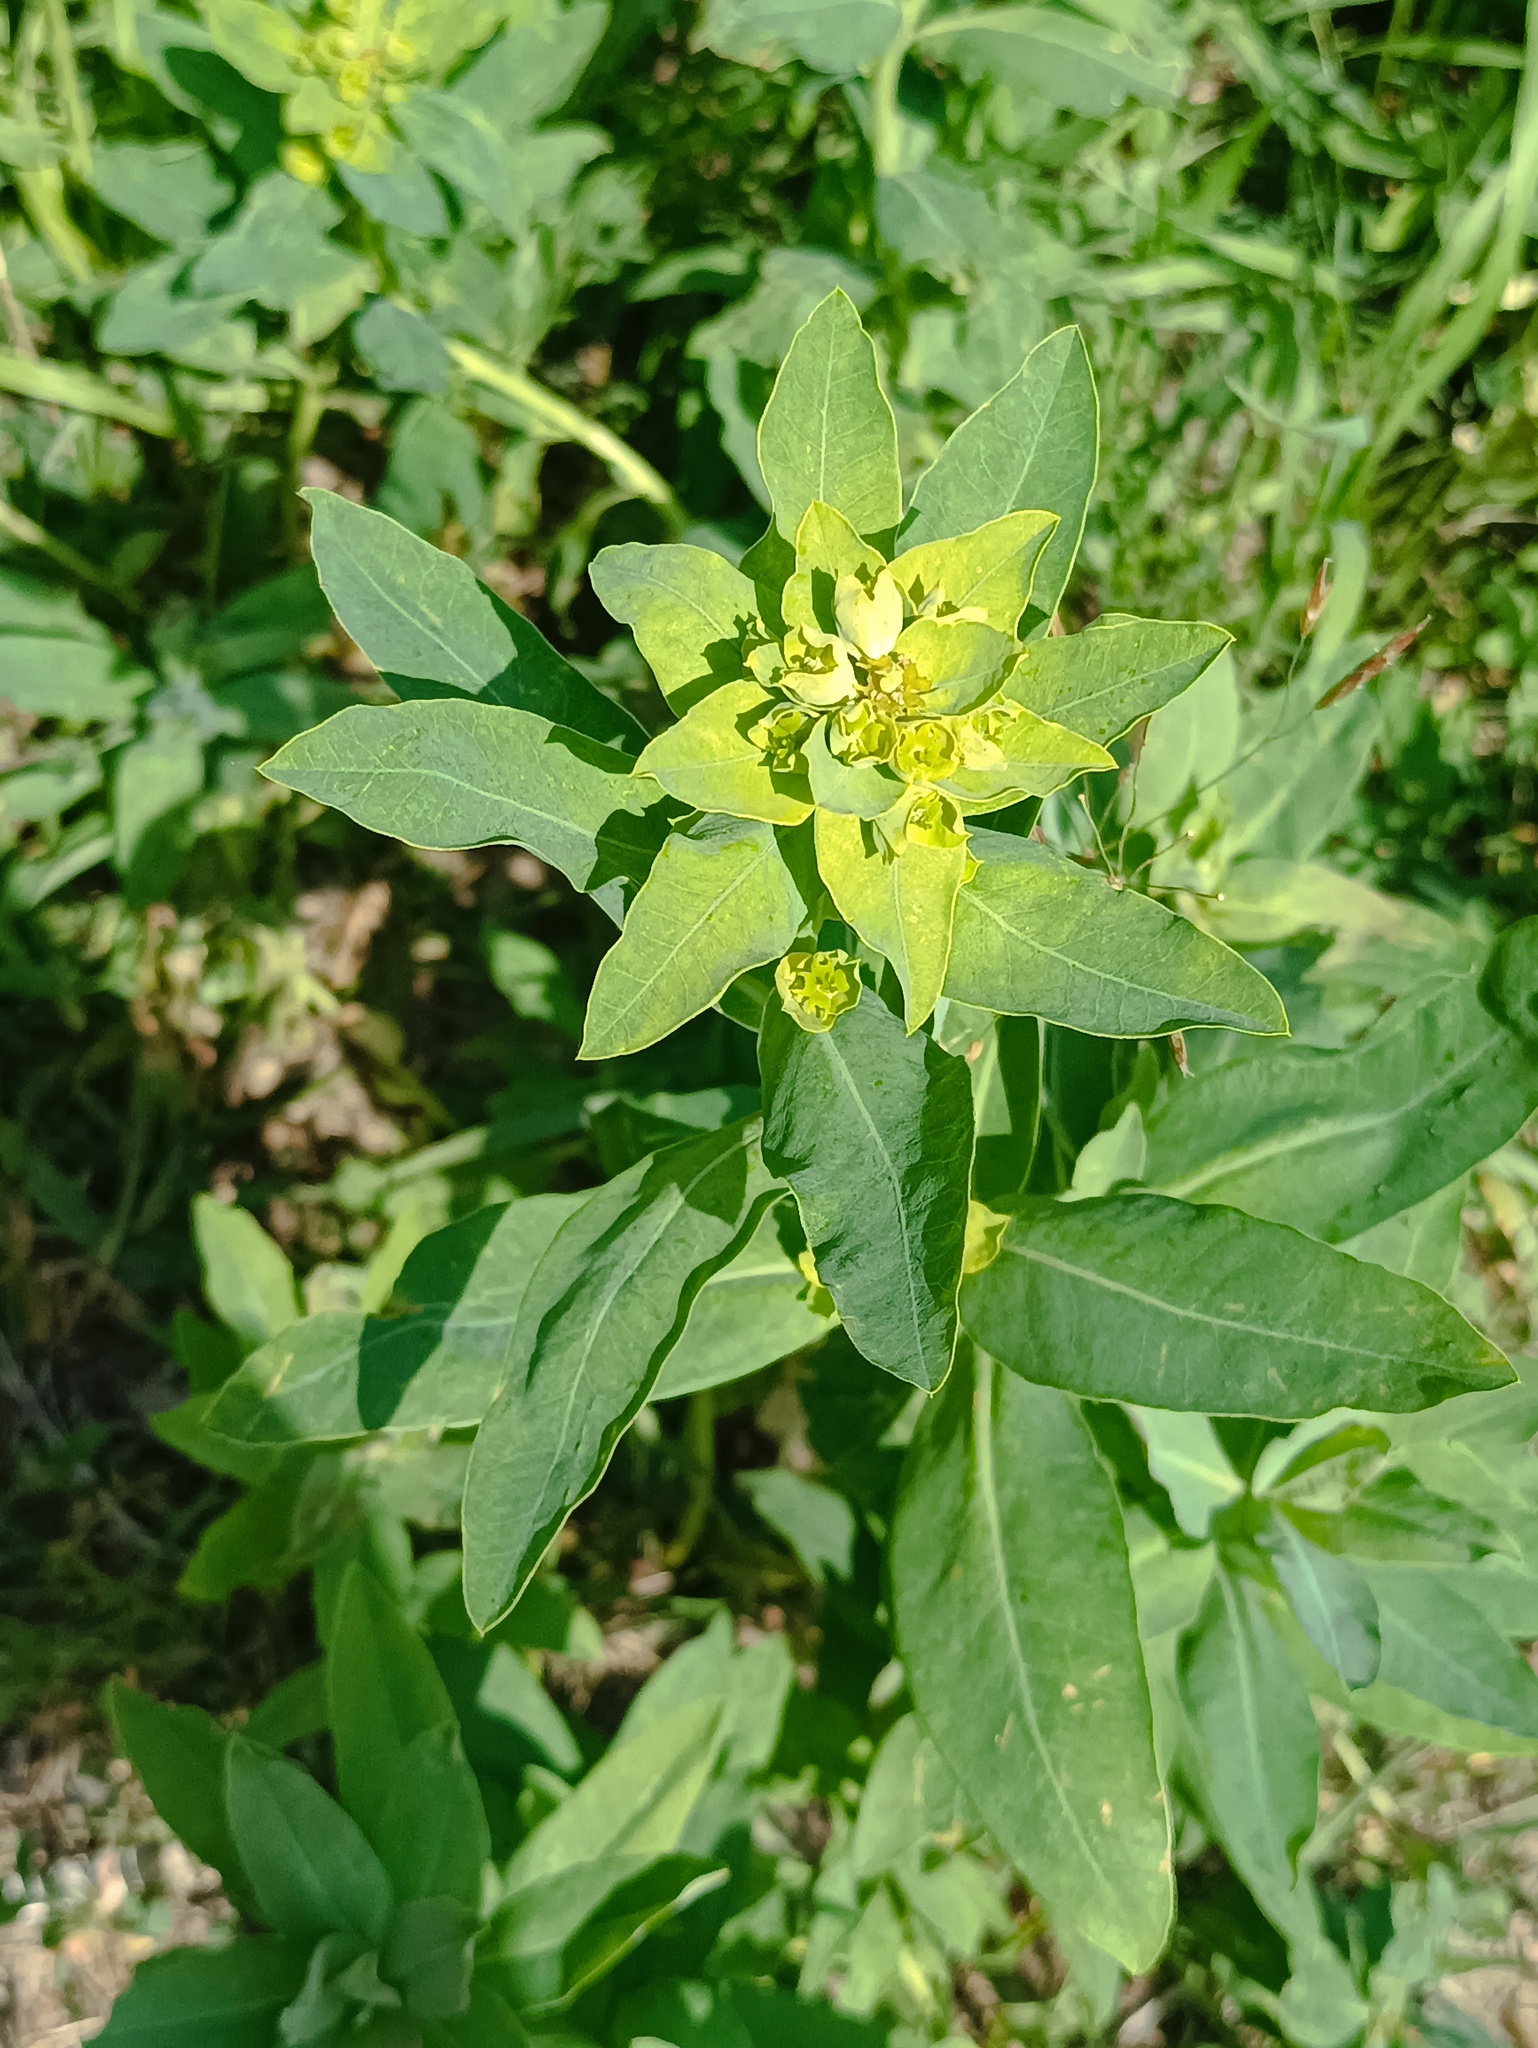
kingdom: Plantae
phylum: Tracheophyta
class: Magnoliopsida
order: Malpighiales
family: Euphorbiaceae
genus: Euphorbia
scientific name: Euphorbia esula
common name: Leafy spurge
